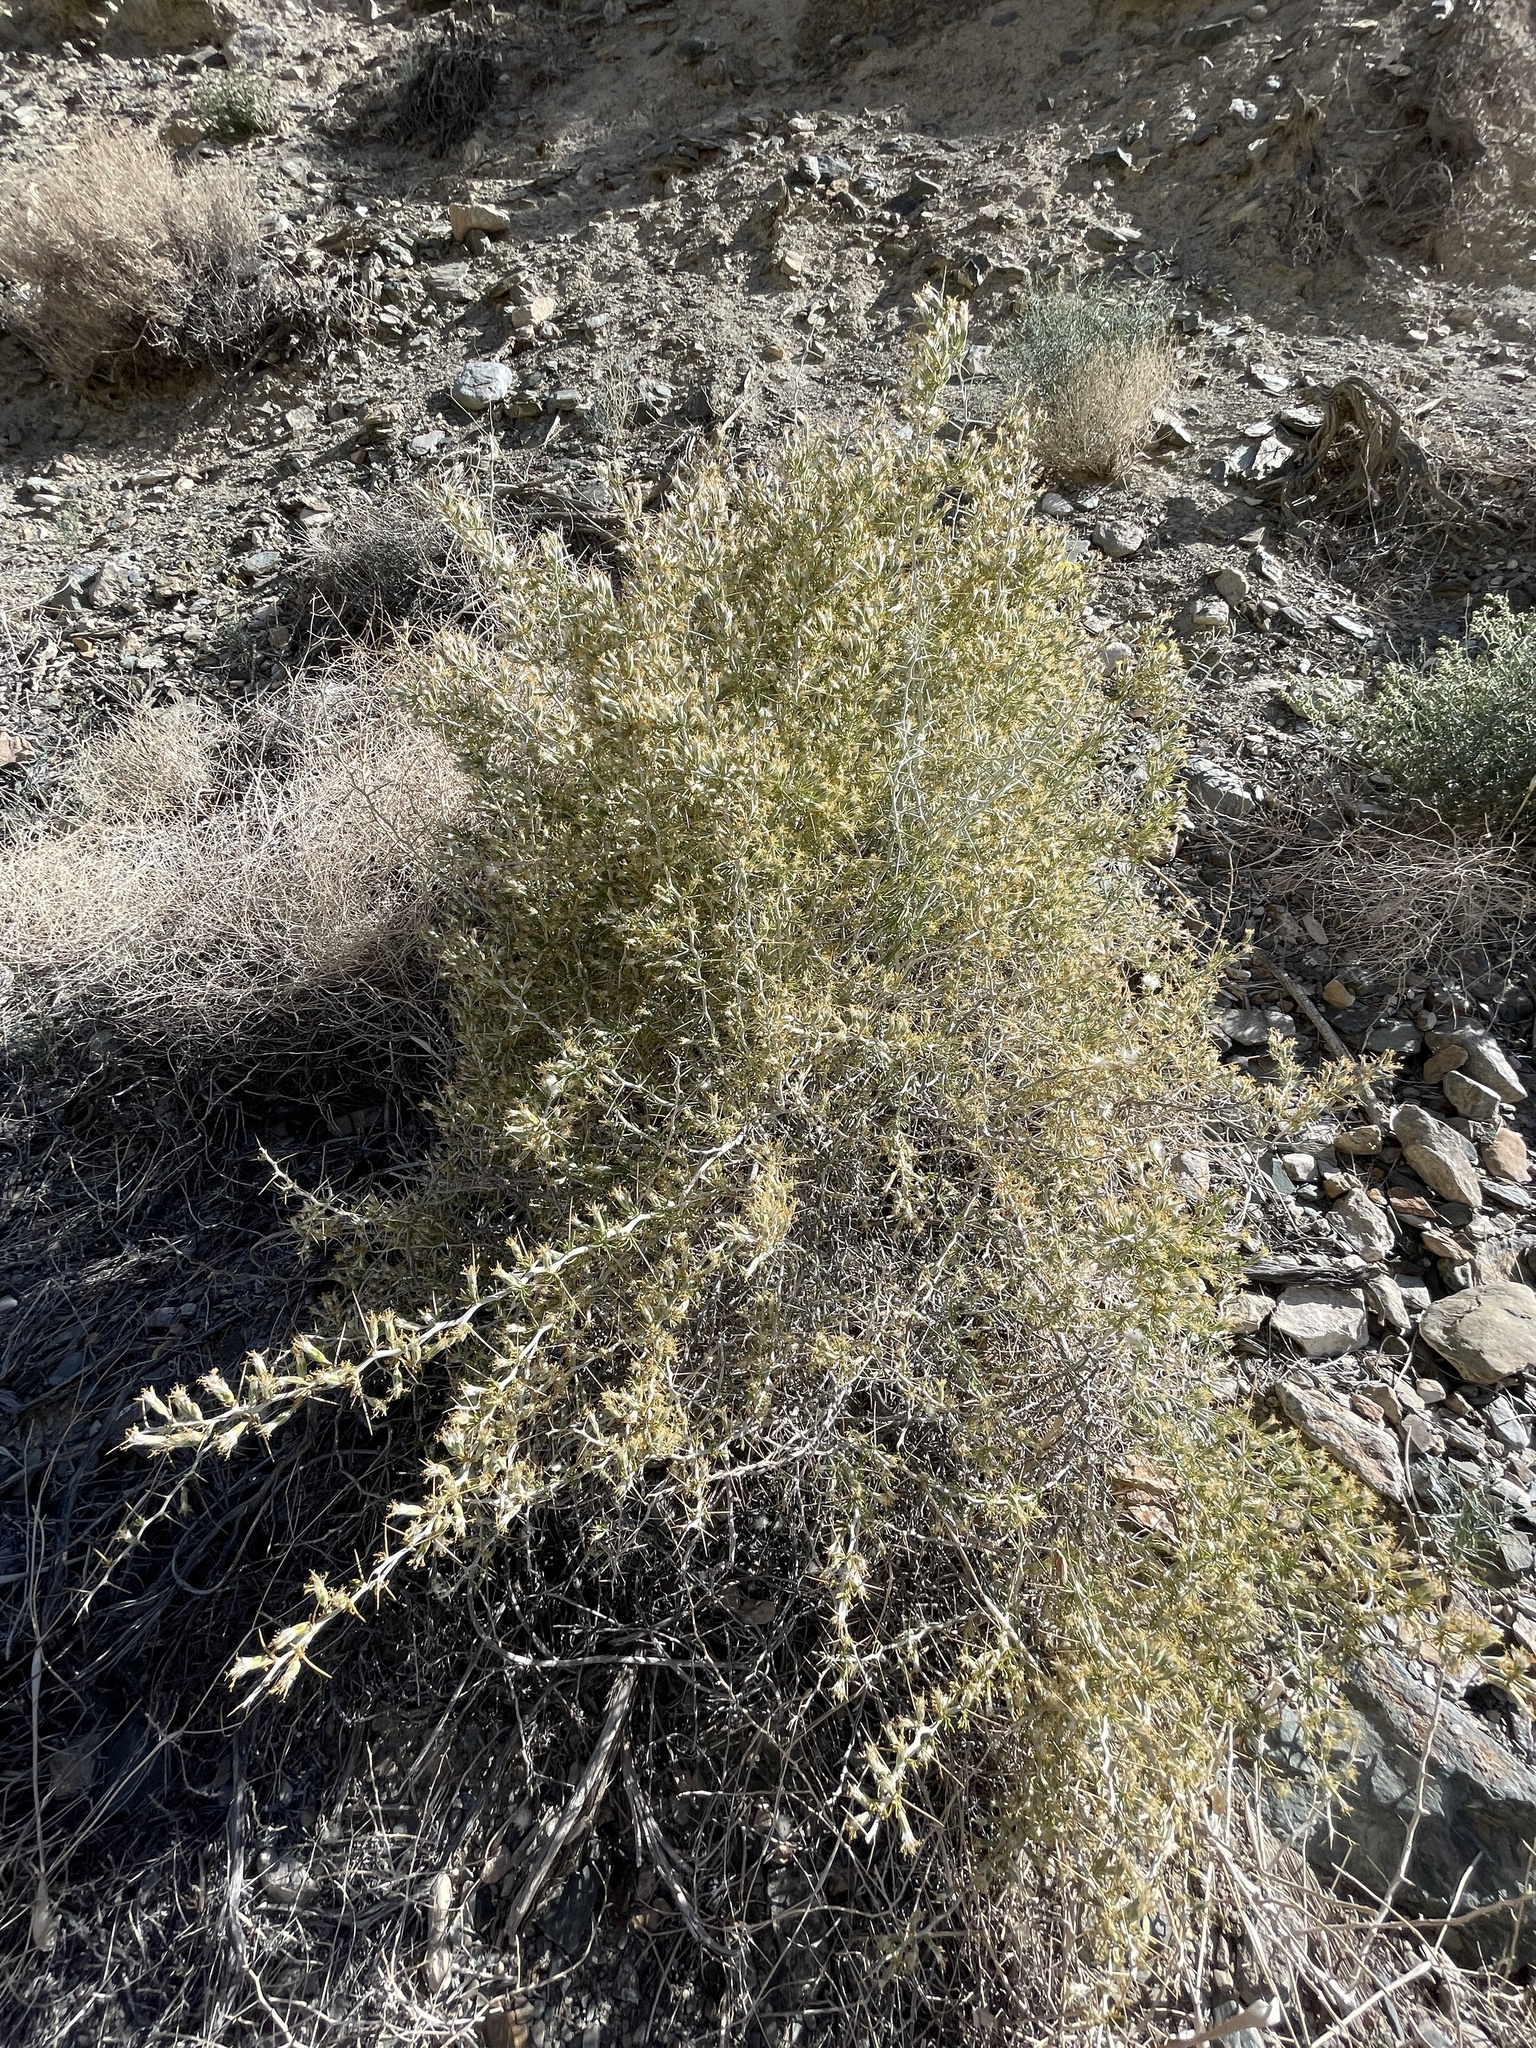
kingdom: Plantae
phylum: Tracheophyta
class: Magnoliopsida
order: Asterales
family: Asteraceae
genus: Tetradymia
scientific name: Tetradymia axillaris
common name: Long-spine horsebrush
